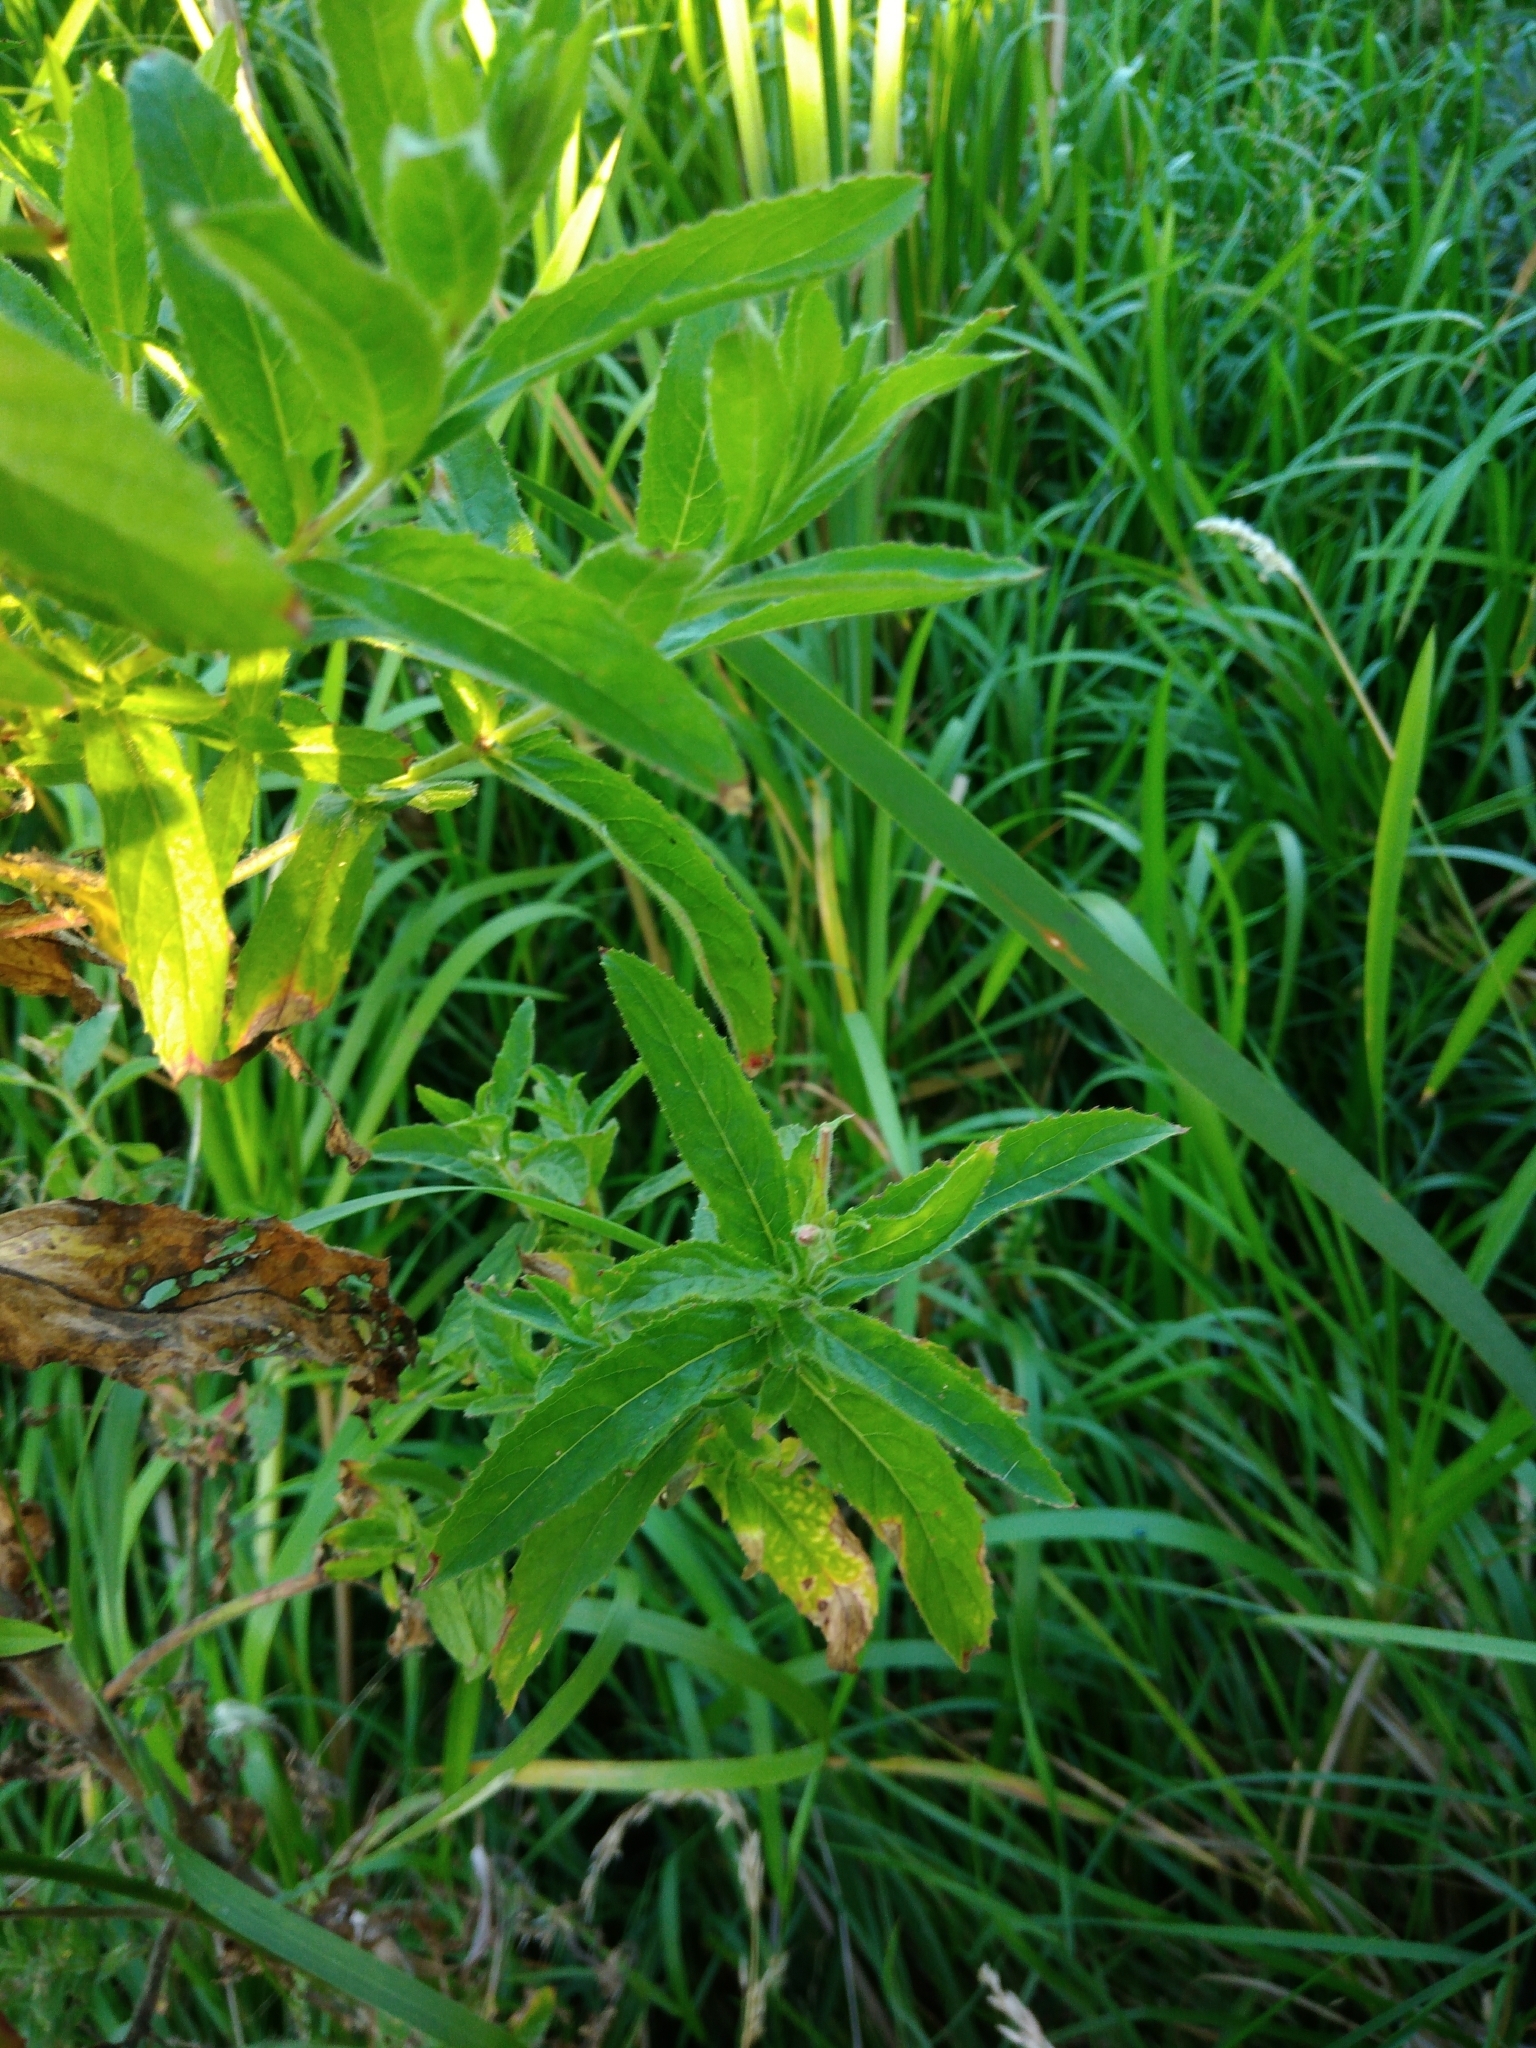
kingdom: Plantae
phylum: Tracheophyta
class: Magnoliopsida
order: Myrtales
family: Onagraceae
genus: Epilobium
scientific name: Epilobium hirsutum
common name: Great willowherb
